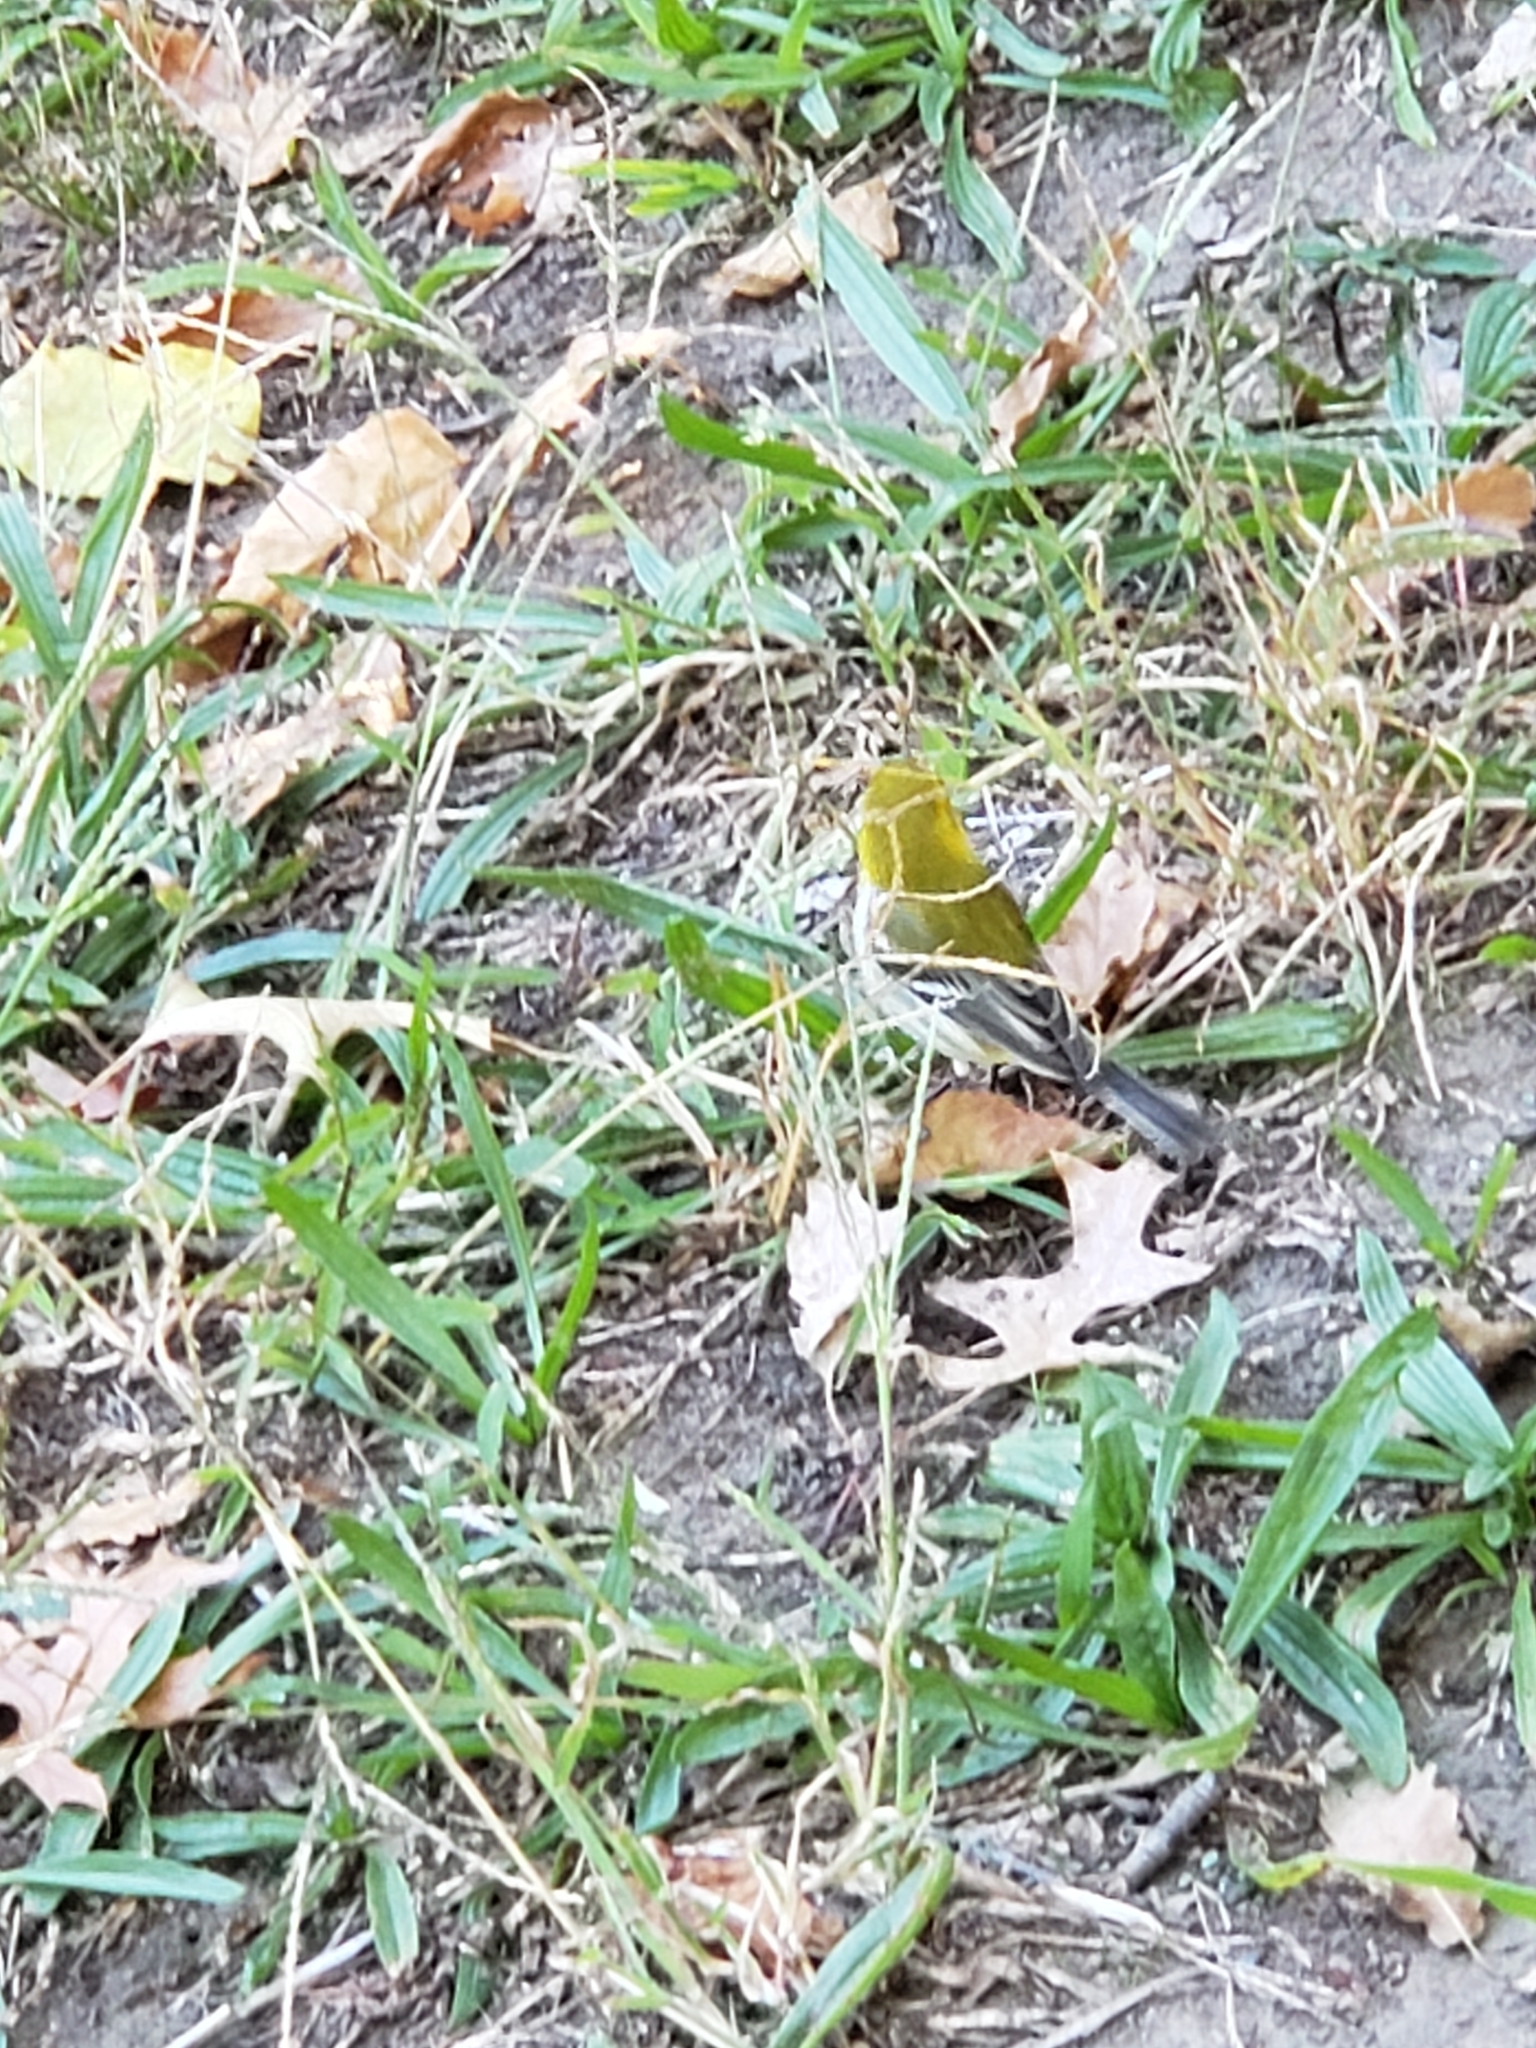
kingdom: Animalia
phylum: Chordata
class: Aves
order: Passeriformes
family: Parulidae
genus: Setophaga
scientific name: Setophaga virens
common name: Black-throated green warbler
